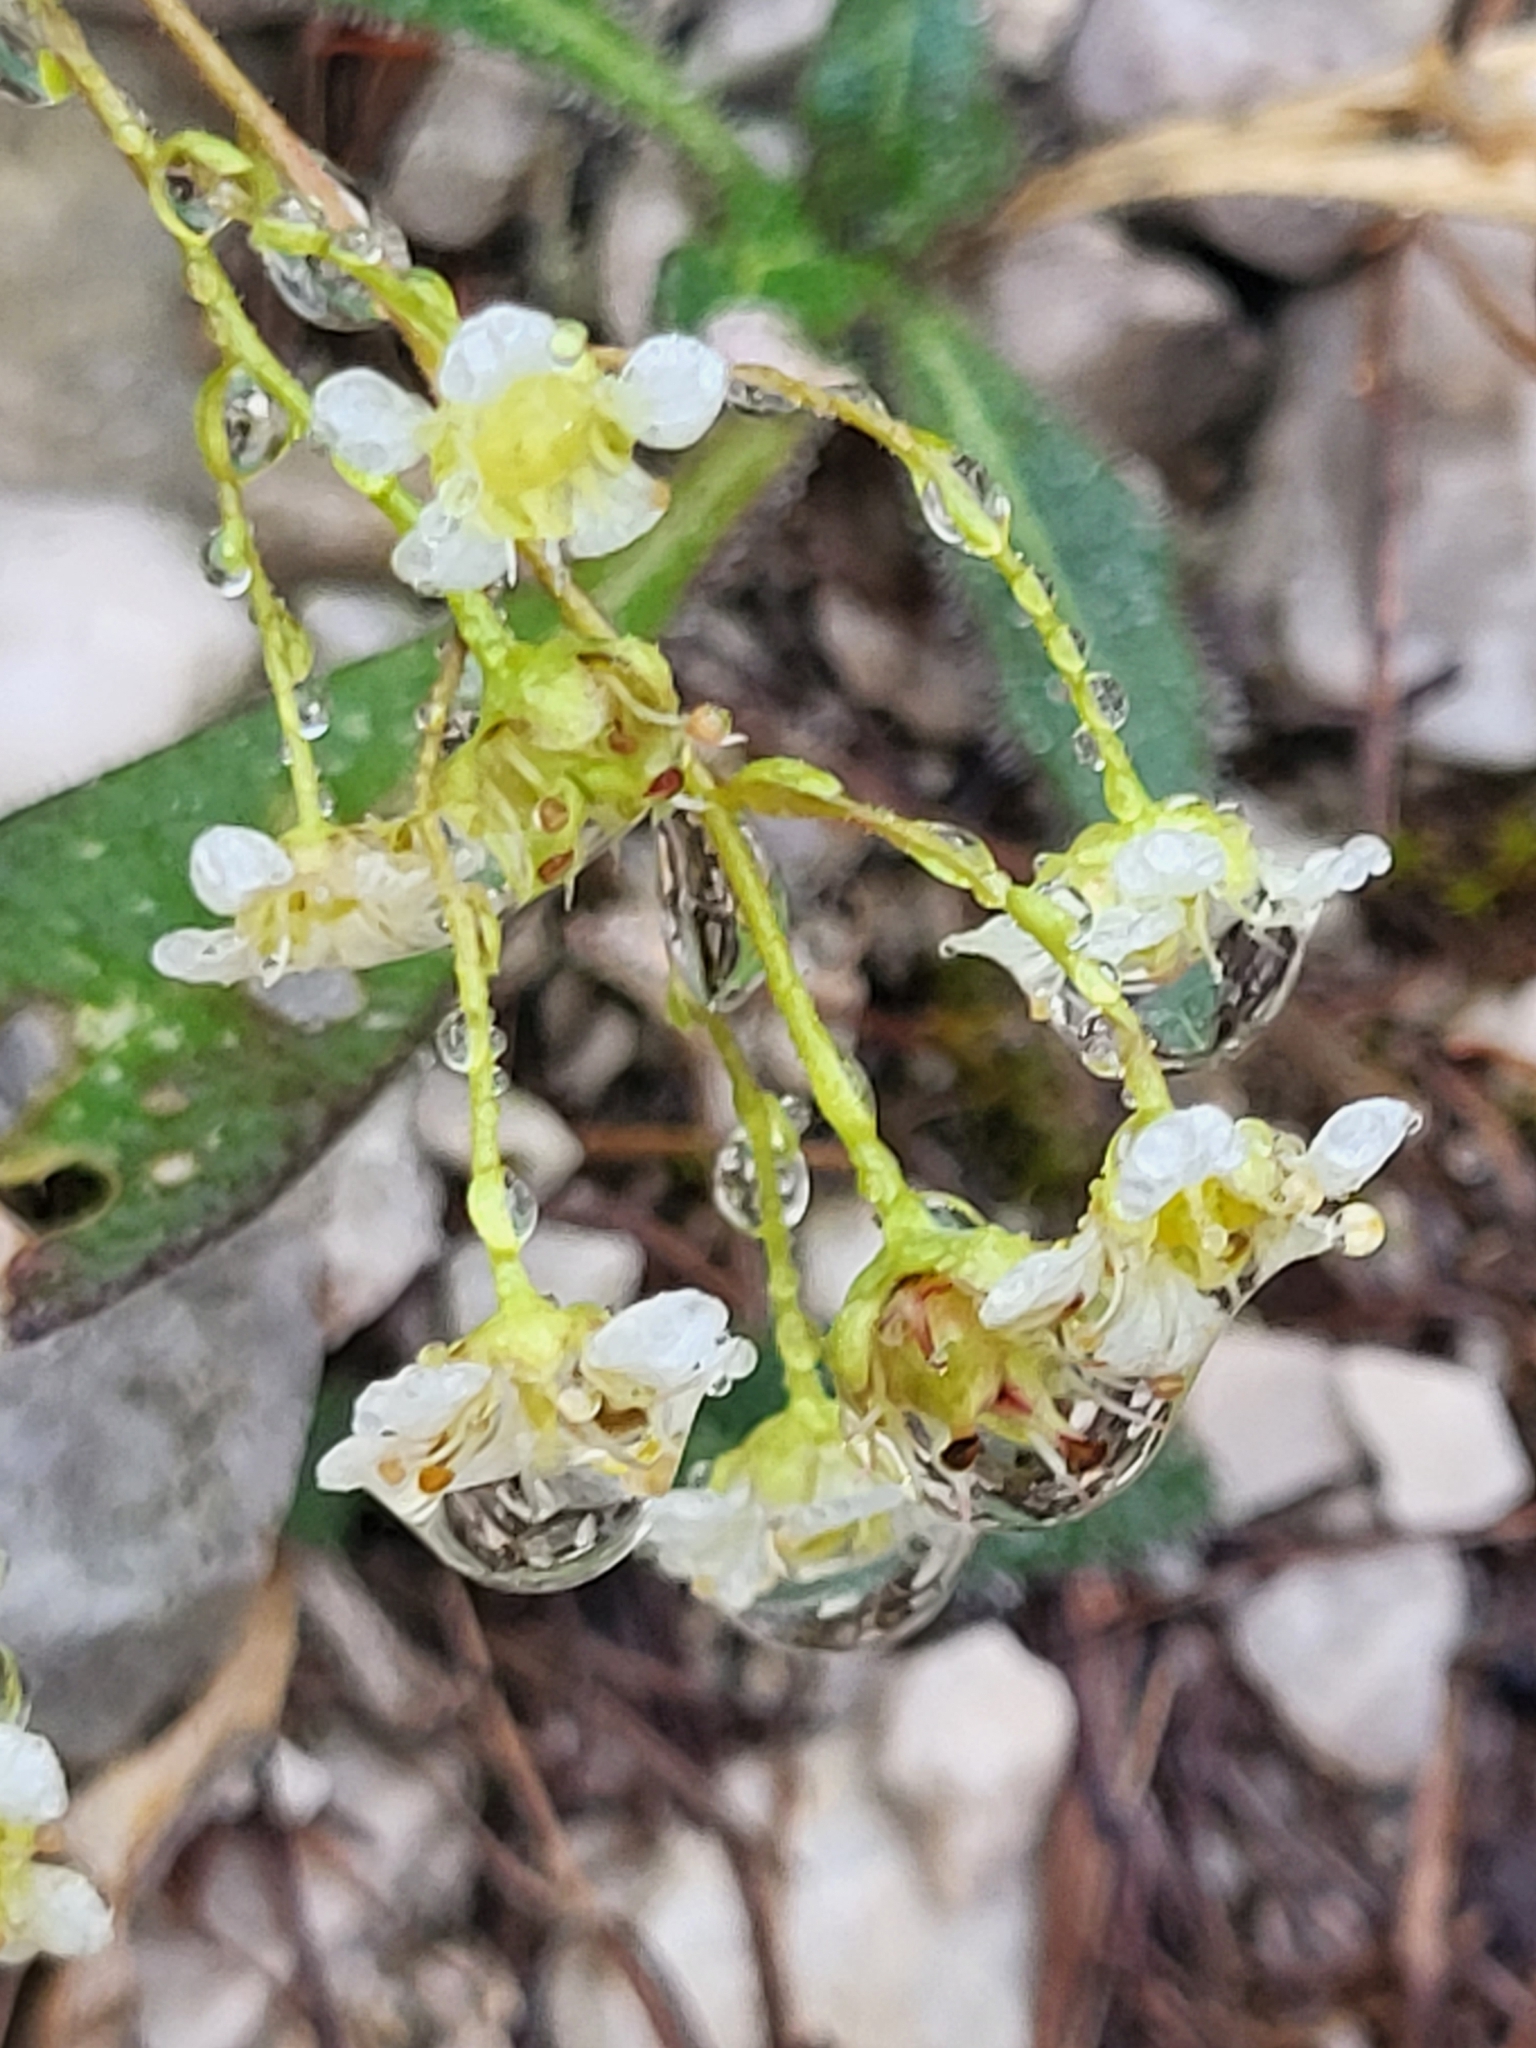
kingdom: Plantae
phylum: Tracheophyta
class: Magnoliopsida
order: Saxifragales
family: Saxifragaceae
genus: Saxifraga
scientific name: Saxifraga squarrosa
